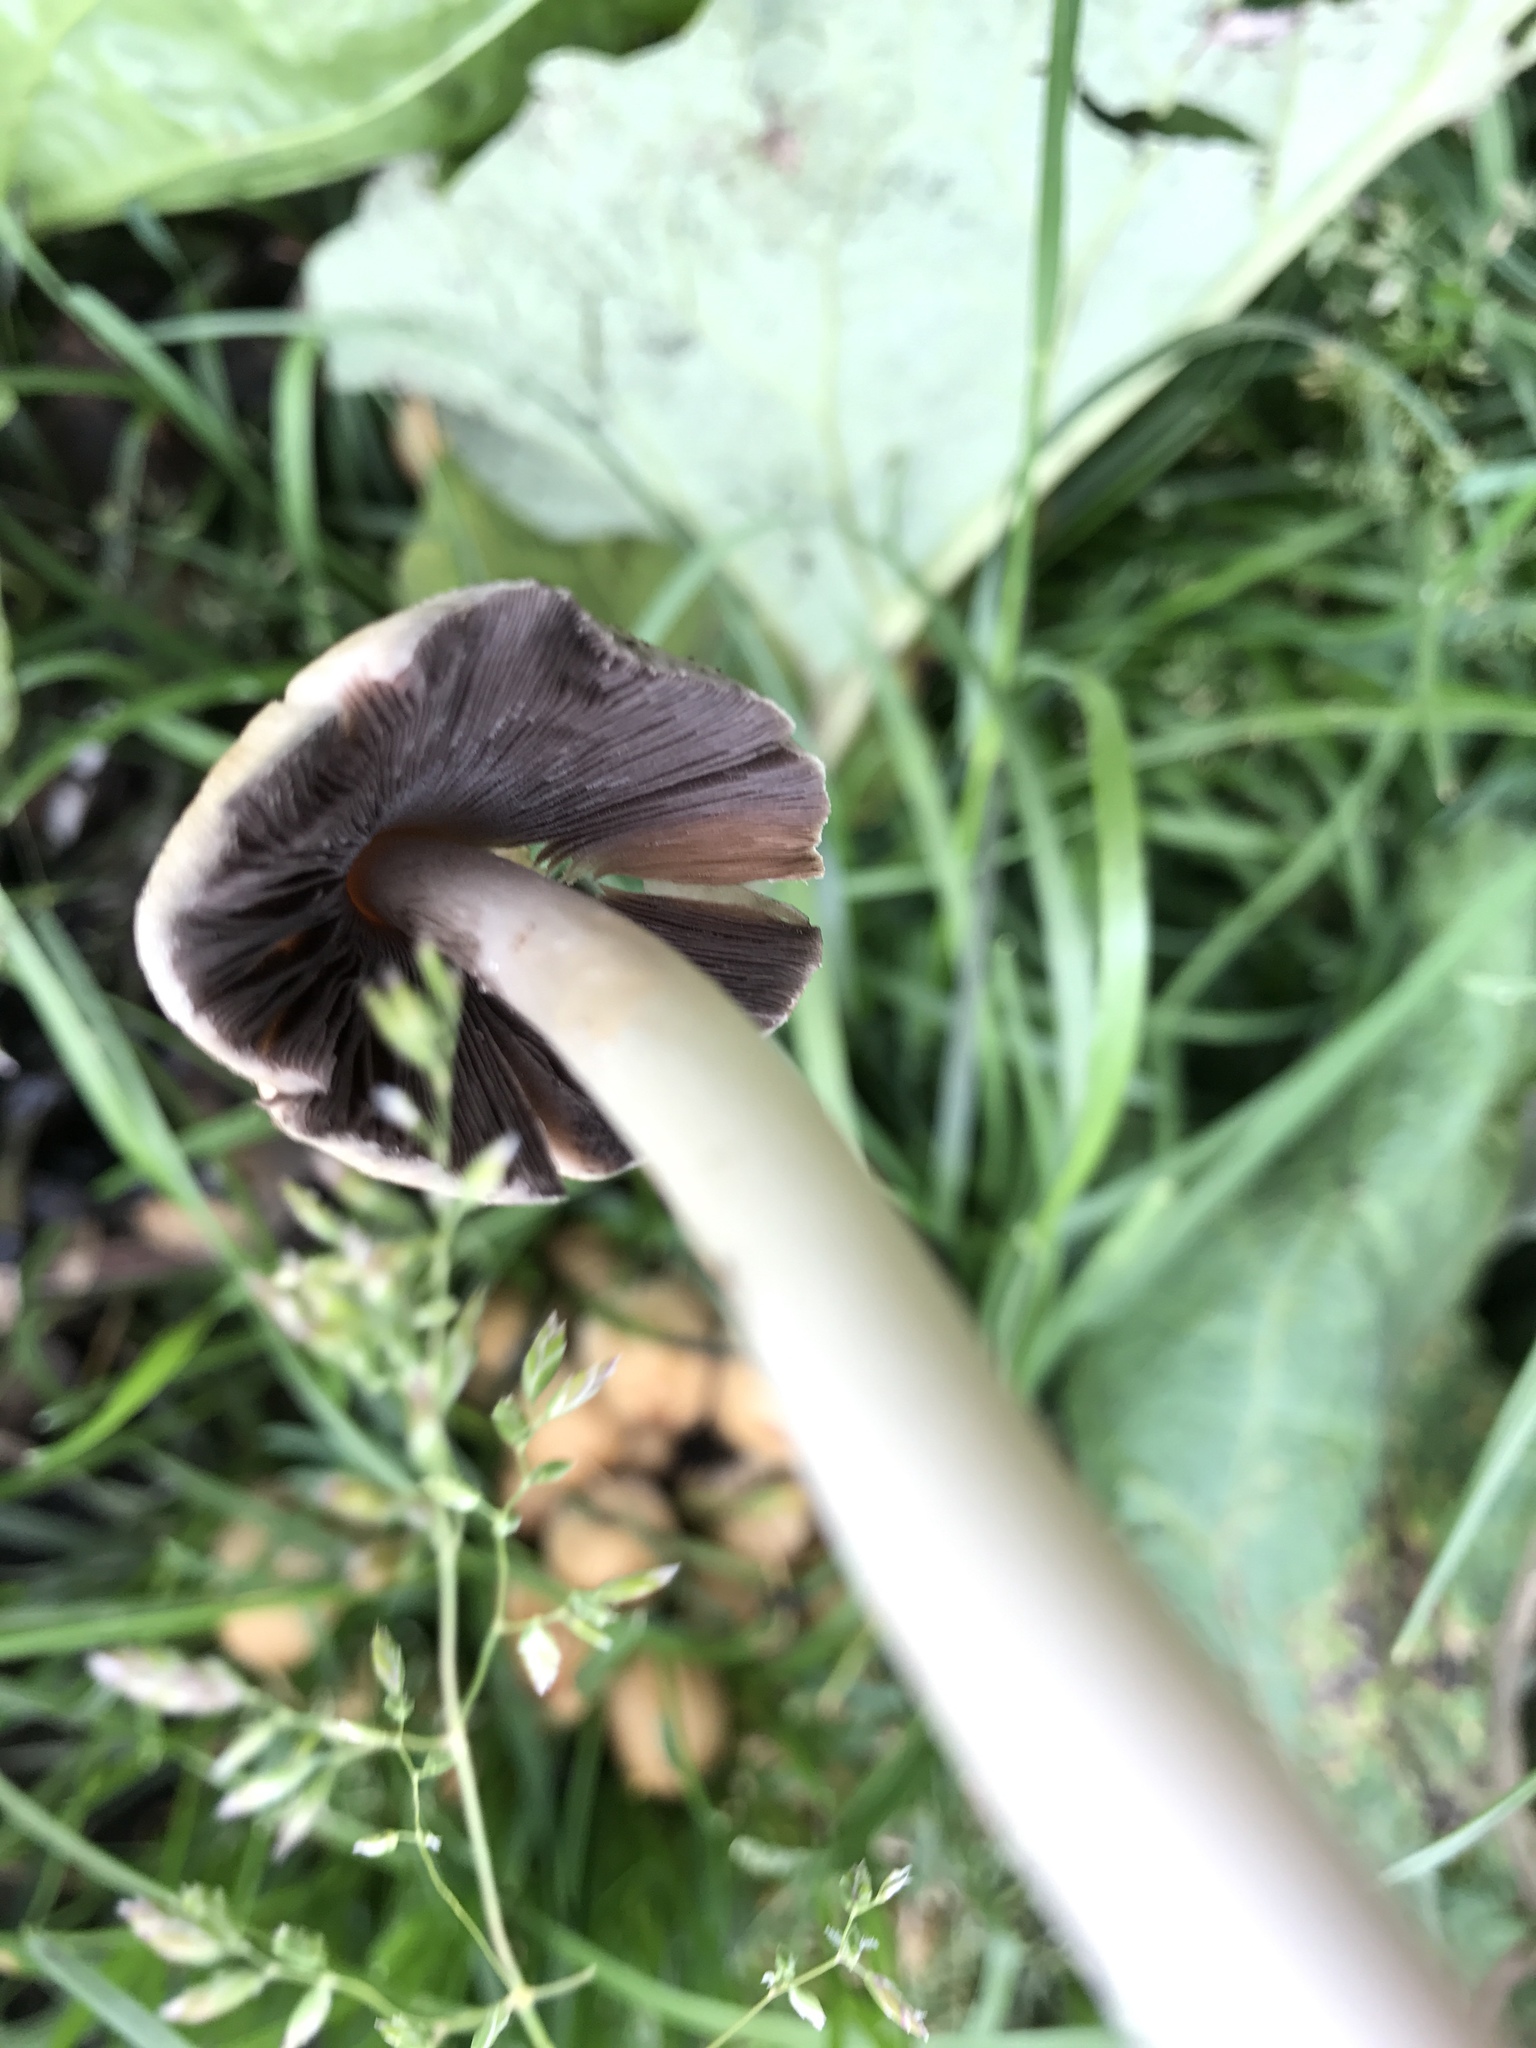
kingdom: Fungi
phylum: Basidiomycota
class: Agaricomycetes
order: Agaricales
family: Psathyrellaceae
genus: Coprinellus
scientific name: Coprinellus micaceus
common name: Glistening ink-cap
